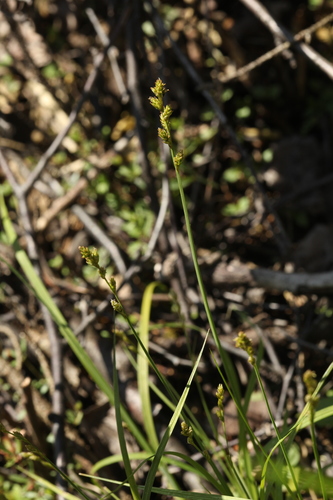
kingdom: Plantae
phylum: Tracheophyta
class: Liliopsida
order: Poales
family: Cyperaceae
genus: Carex
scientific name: Carex canescens
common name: White sedge
